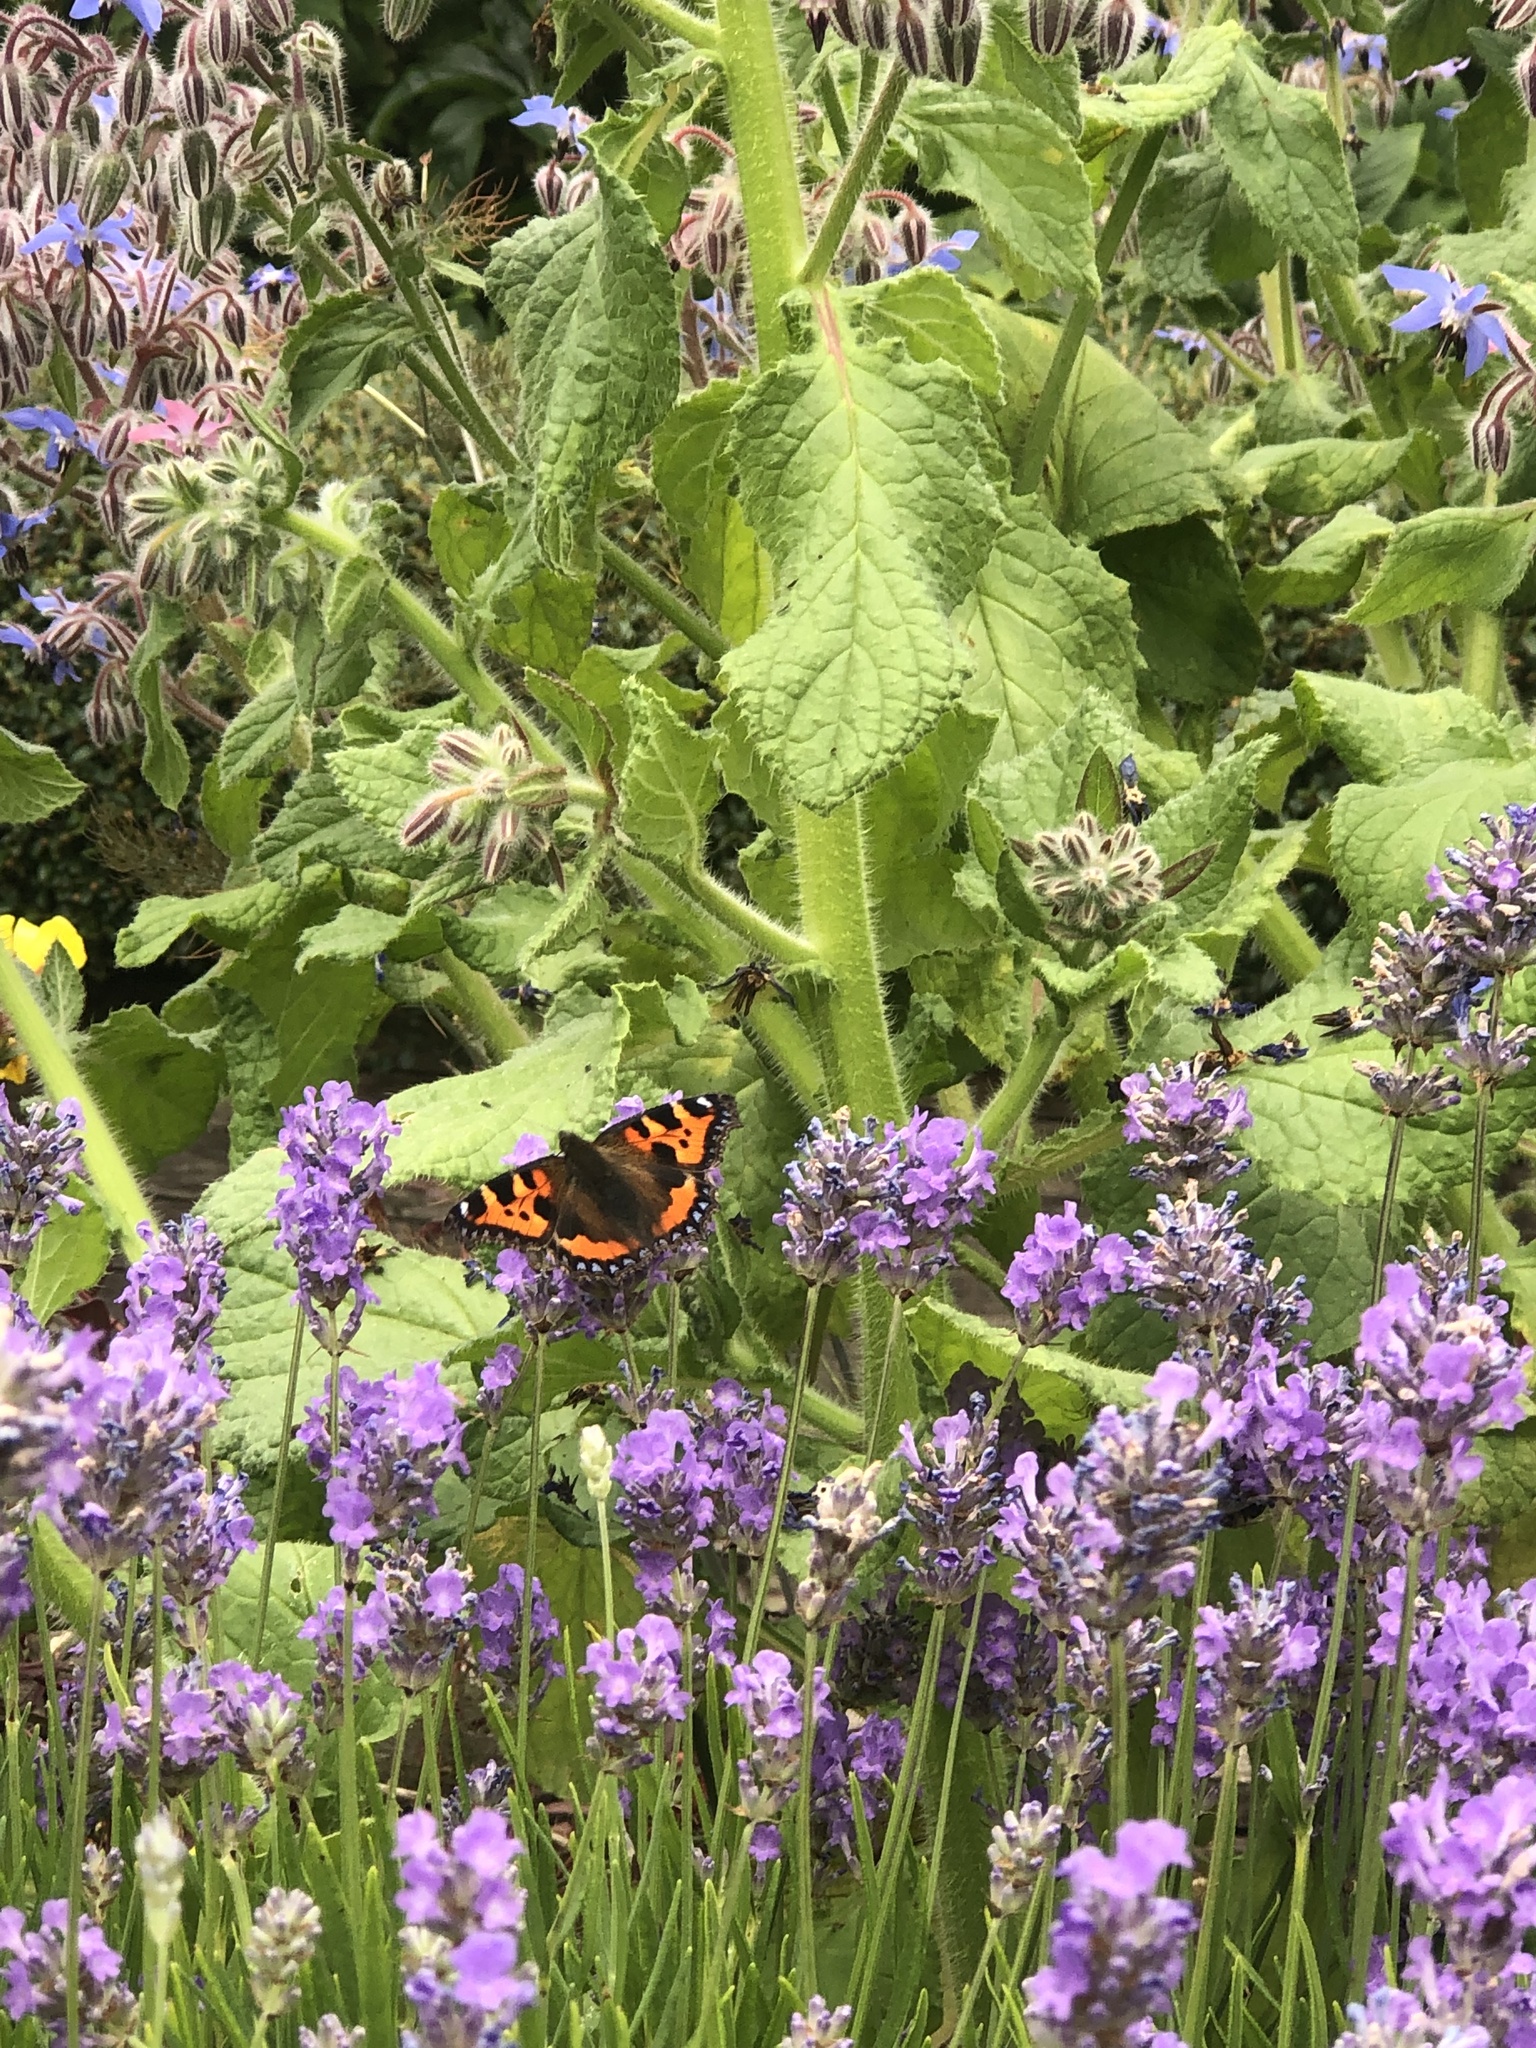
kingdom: Animalia
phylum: Arthropoda
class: Insecta
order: Lepidoptera
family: Nymphalidae
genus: Aglais
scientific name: Aglais urticae
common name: Small tortoiseshell
